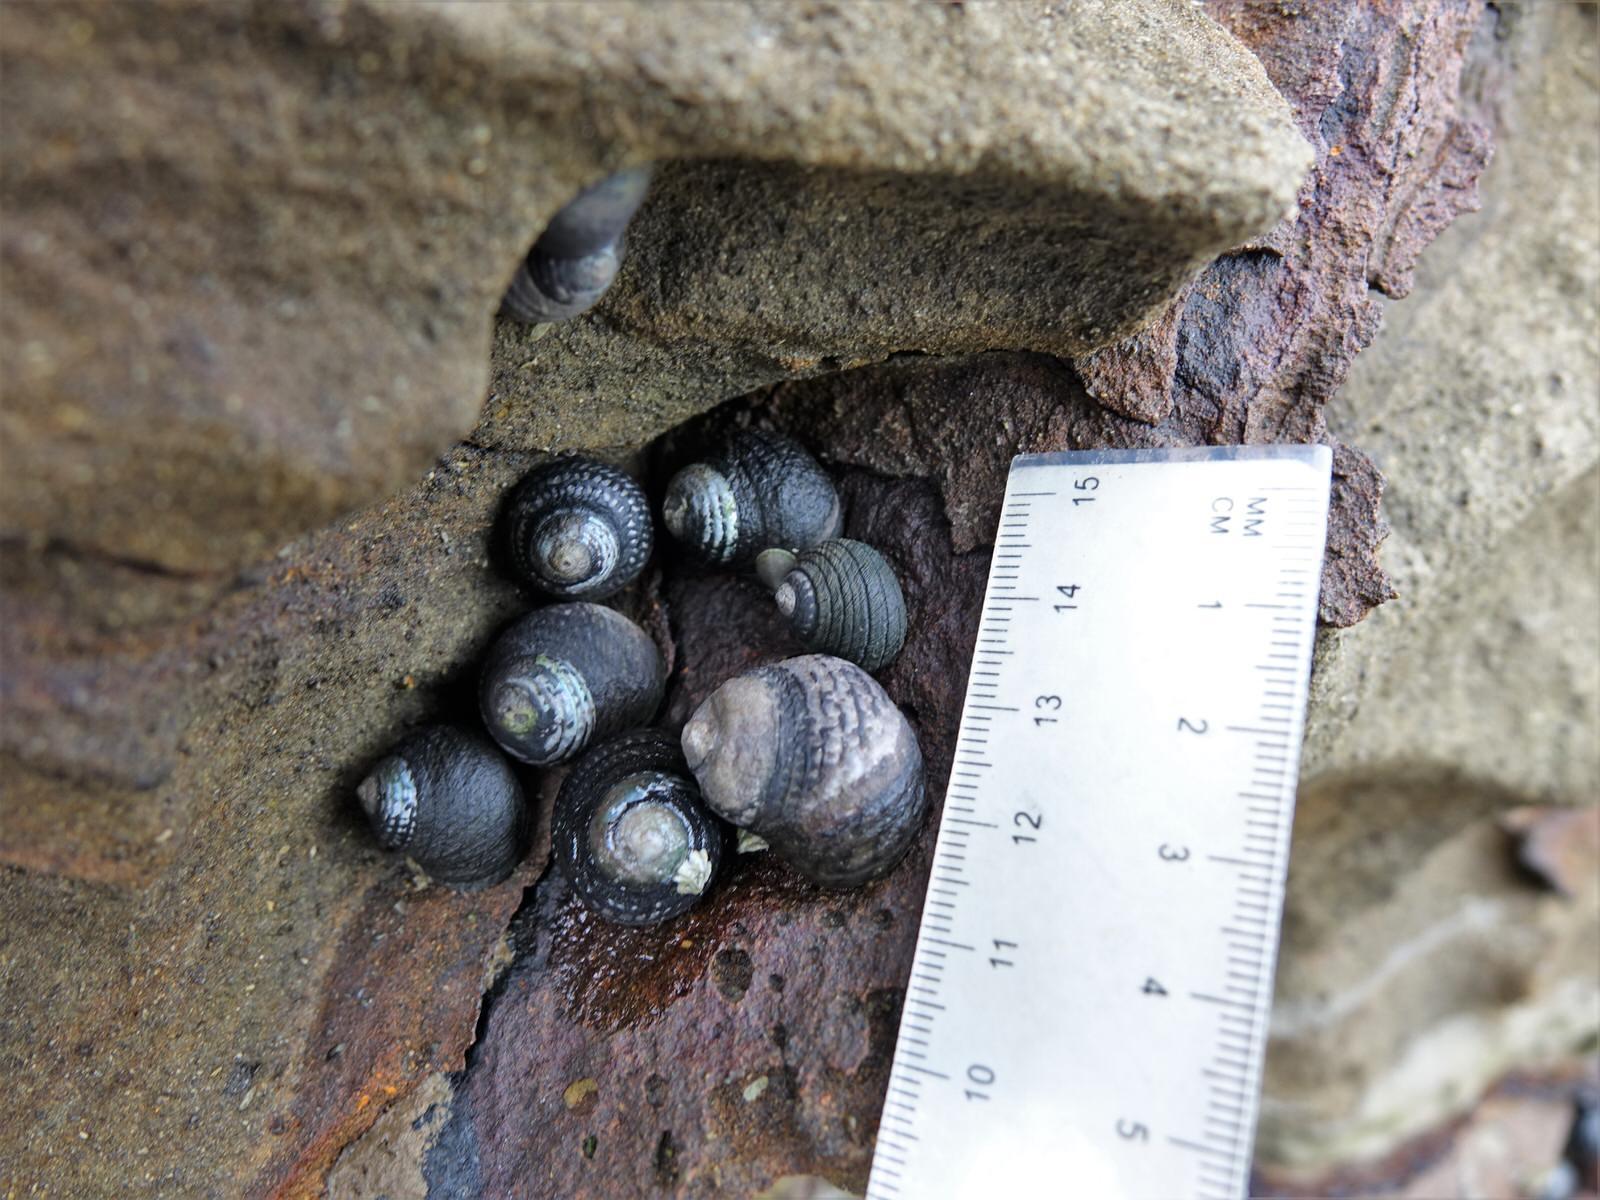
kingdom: Animalia
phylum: Mollusca
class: Gastropoda
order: Trochida
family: Trochidae
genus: Diloma
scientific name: Diloma aethiops
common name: Scorched monodont
